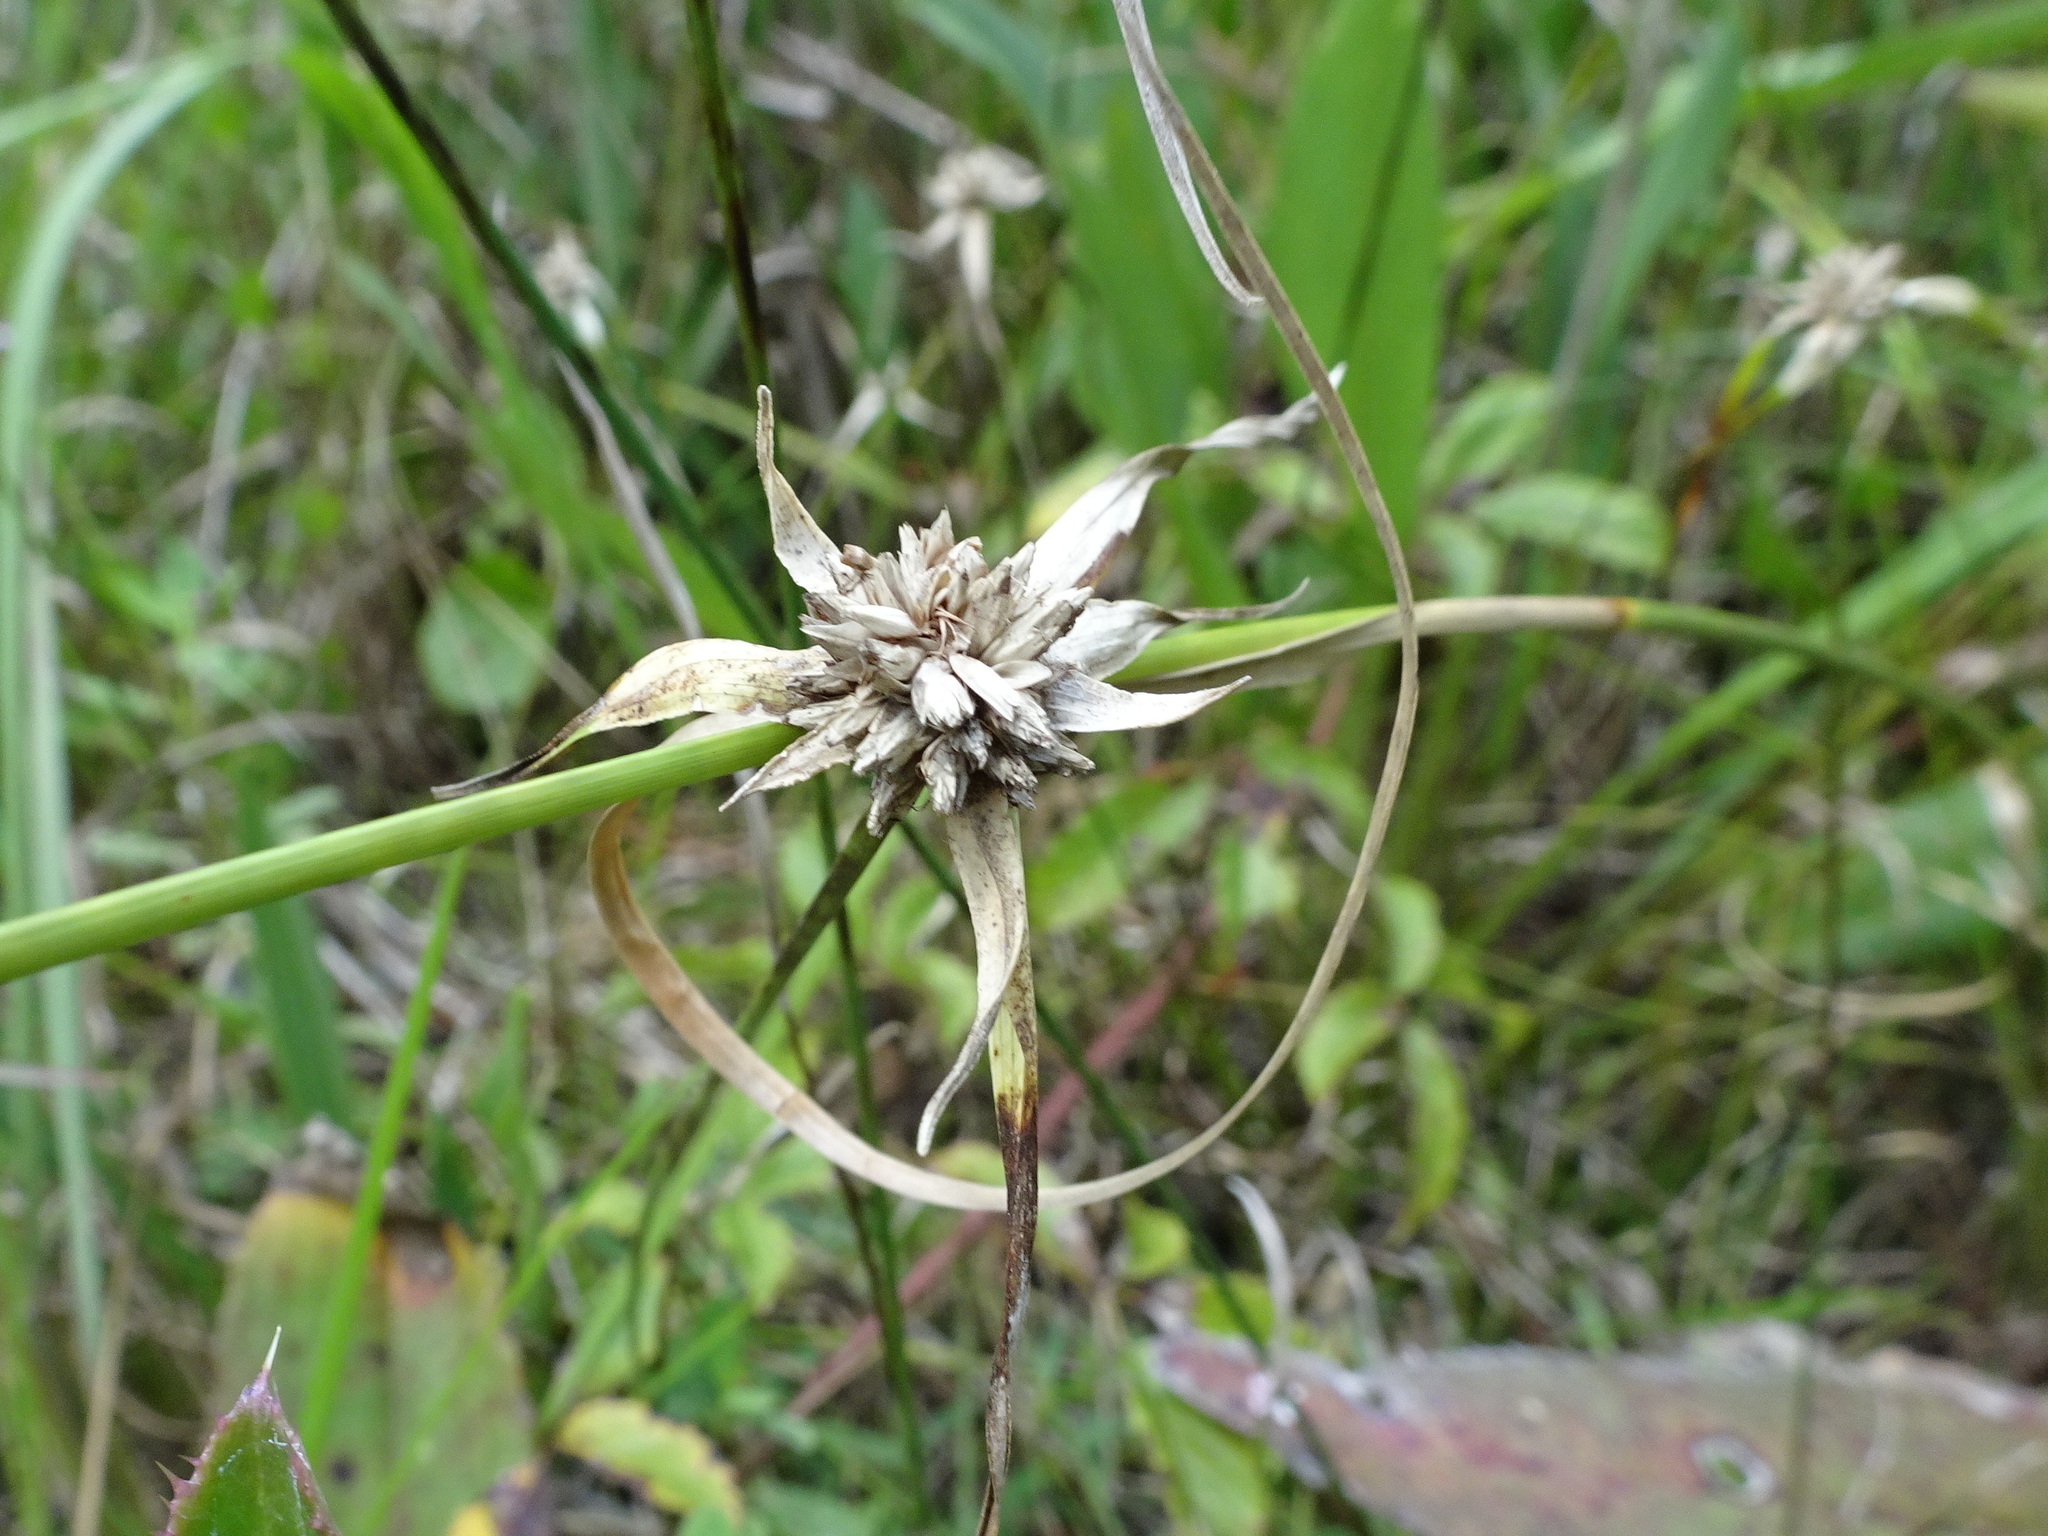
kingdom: Plantae
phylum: Tracheophyta
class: Liliopsida
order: Poales
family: Cyperaceae
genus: Rhynchospora
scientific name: Rhynchospora colorata
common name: Star sedge
